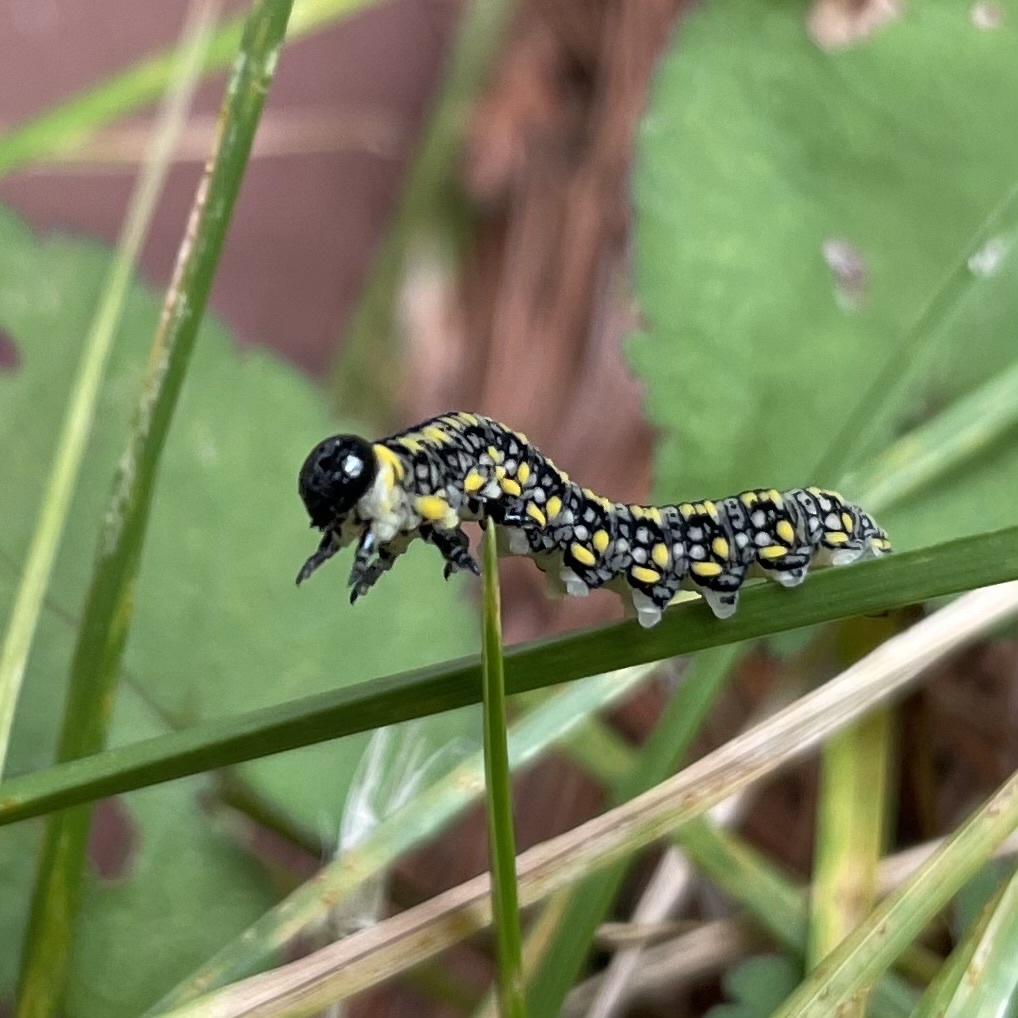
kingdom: Animalia
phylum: Arthropoda
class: Insecta
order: Hymenoptera
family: Diprionidae
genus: Diprion
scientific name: Diprion similis
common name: Pine sawfly
